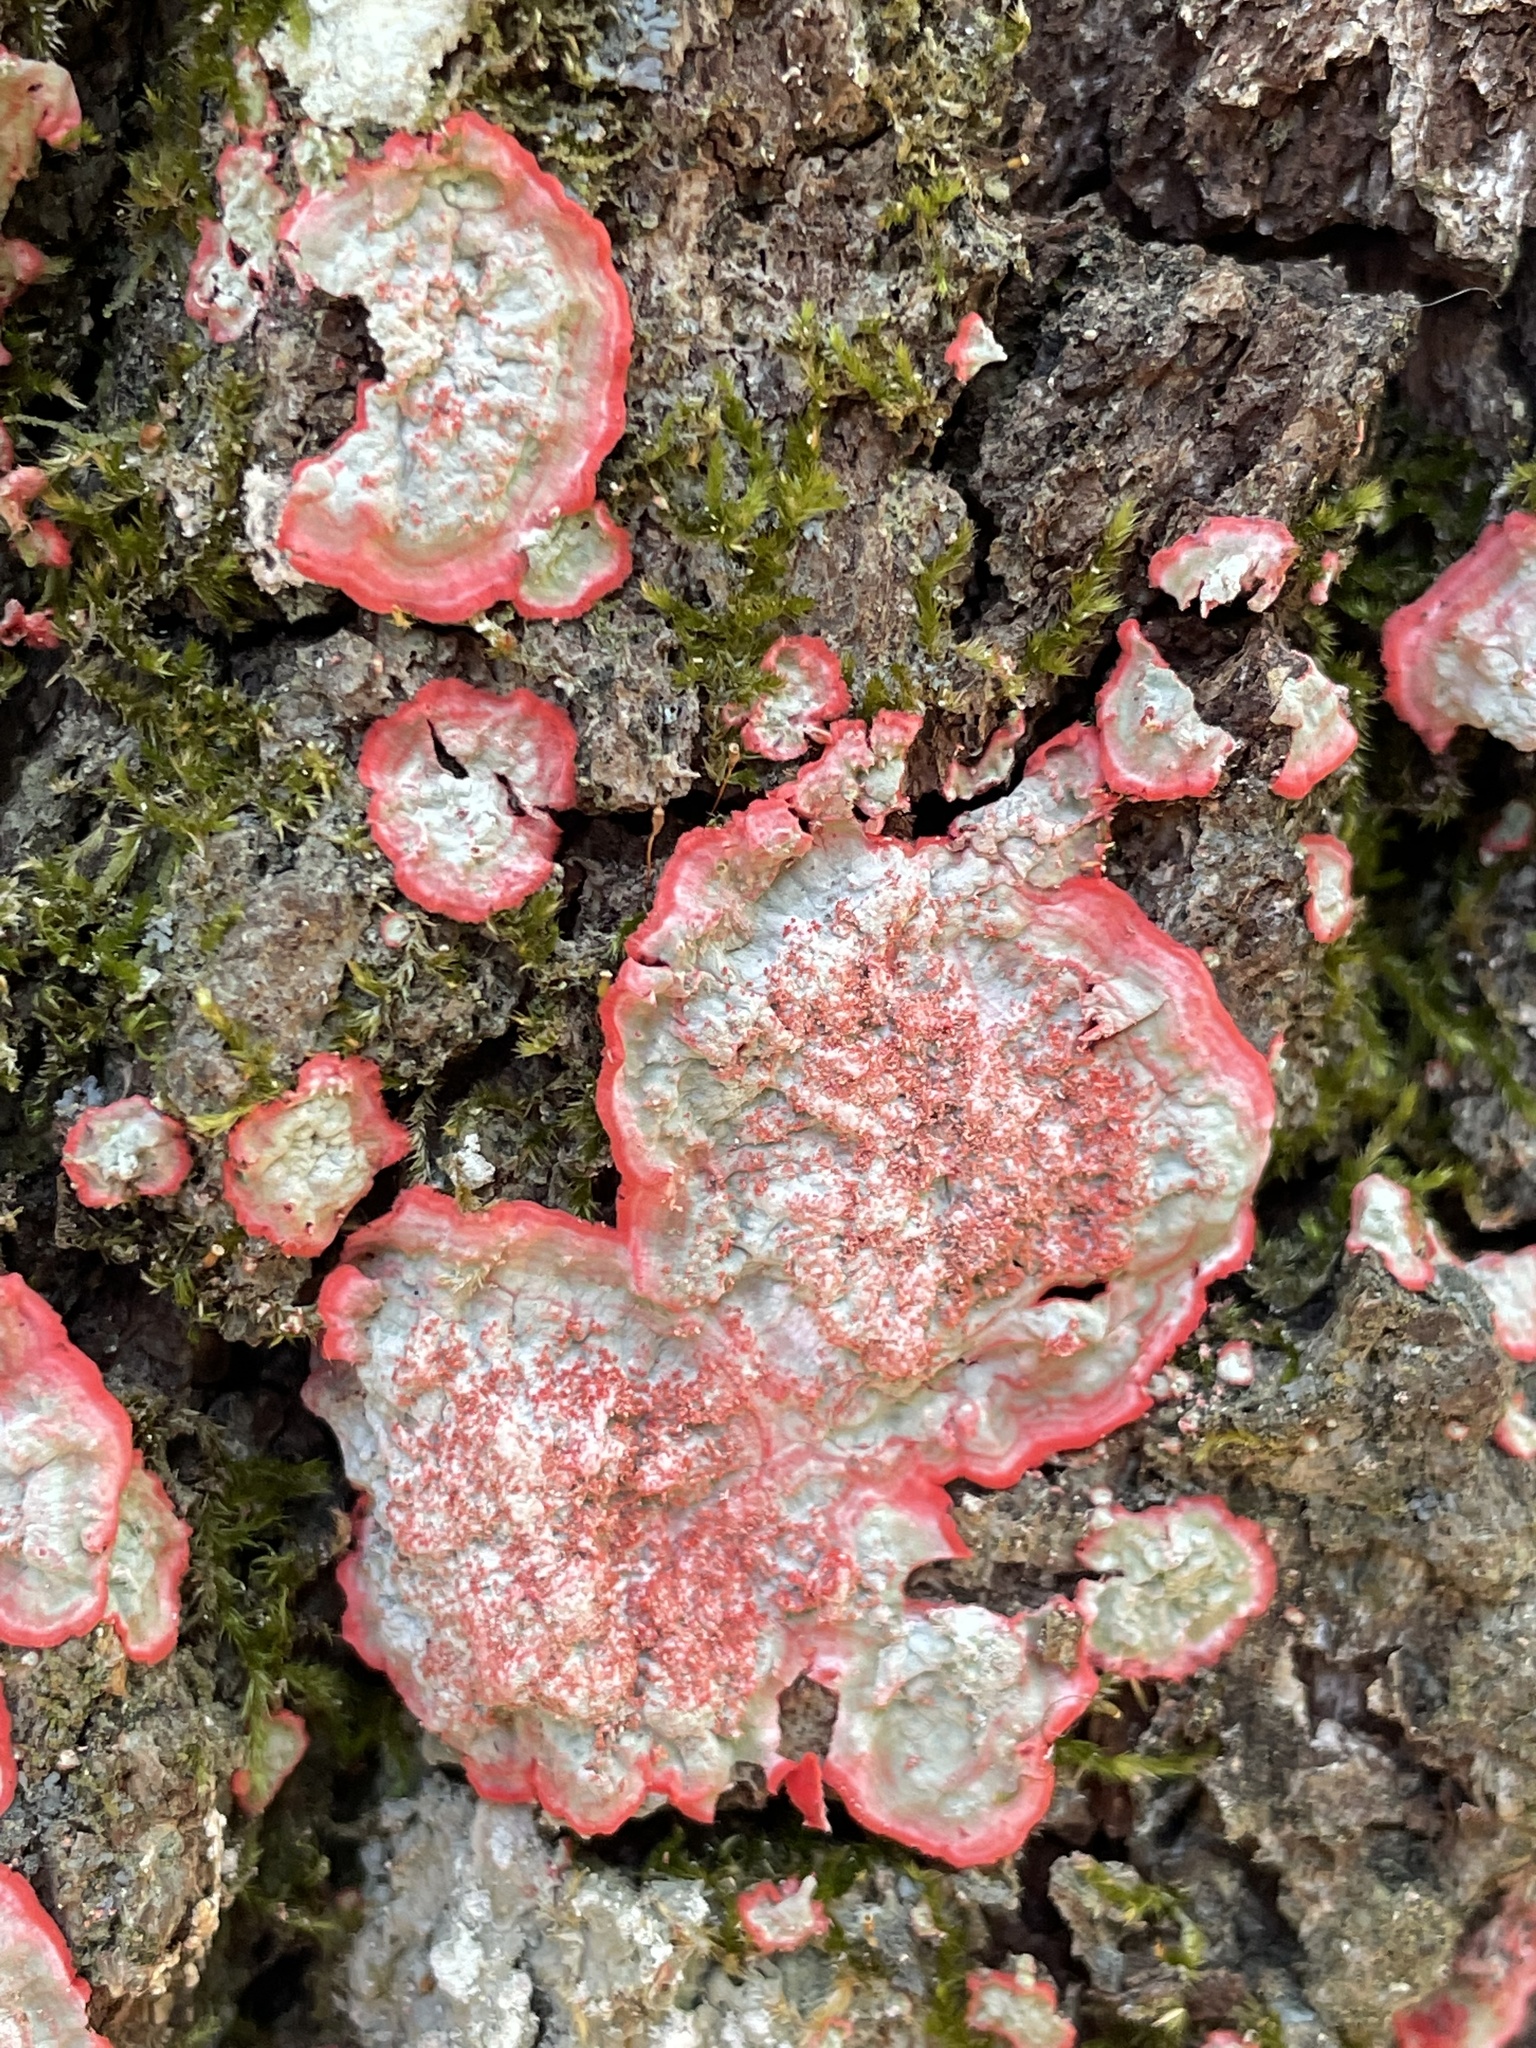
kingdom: Fungi
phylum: Ascomycota
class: Arthoniomycetes
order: Arthoniales
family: Arthoniaceae
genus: Herpothallon
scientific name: Herpothallon rubrocinctum
